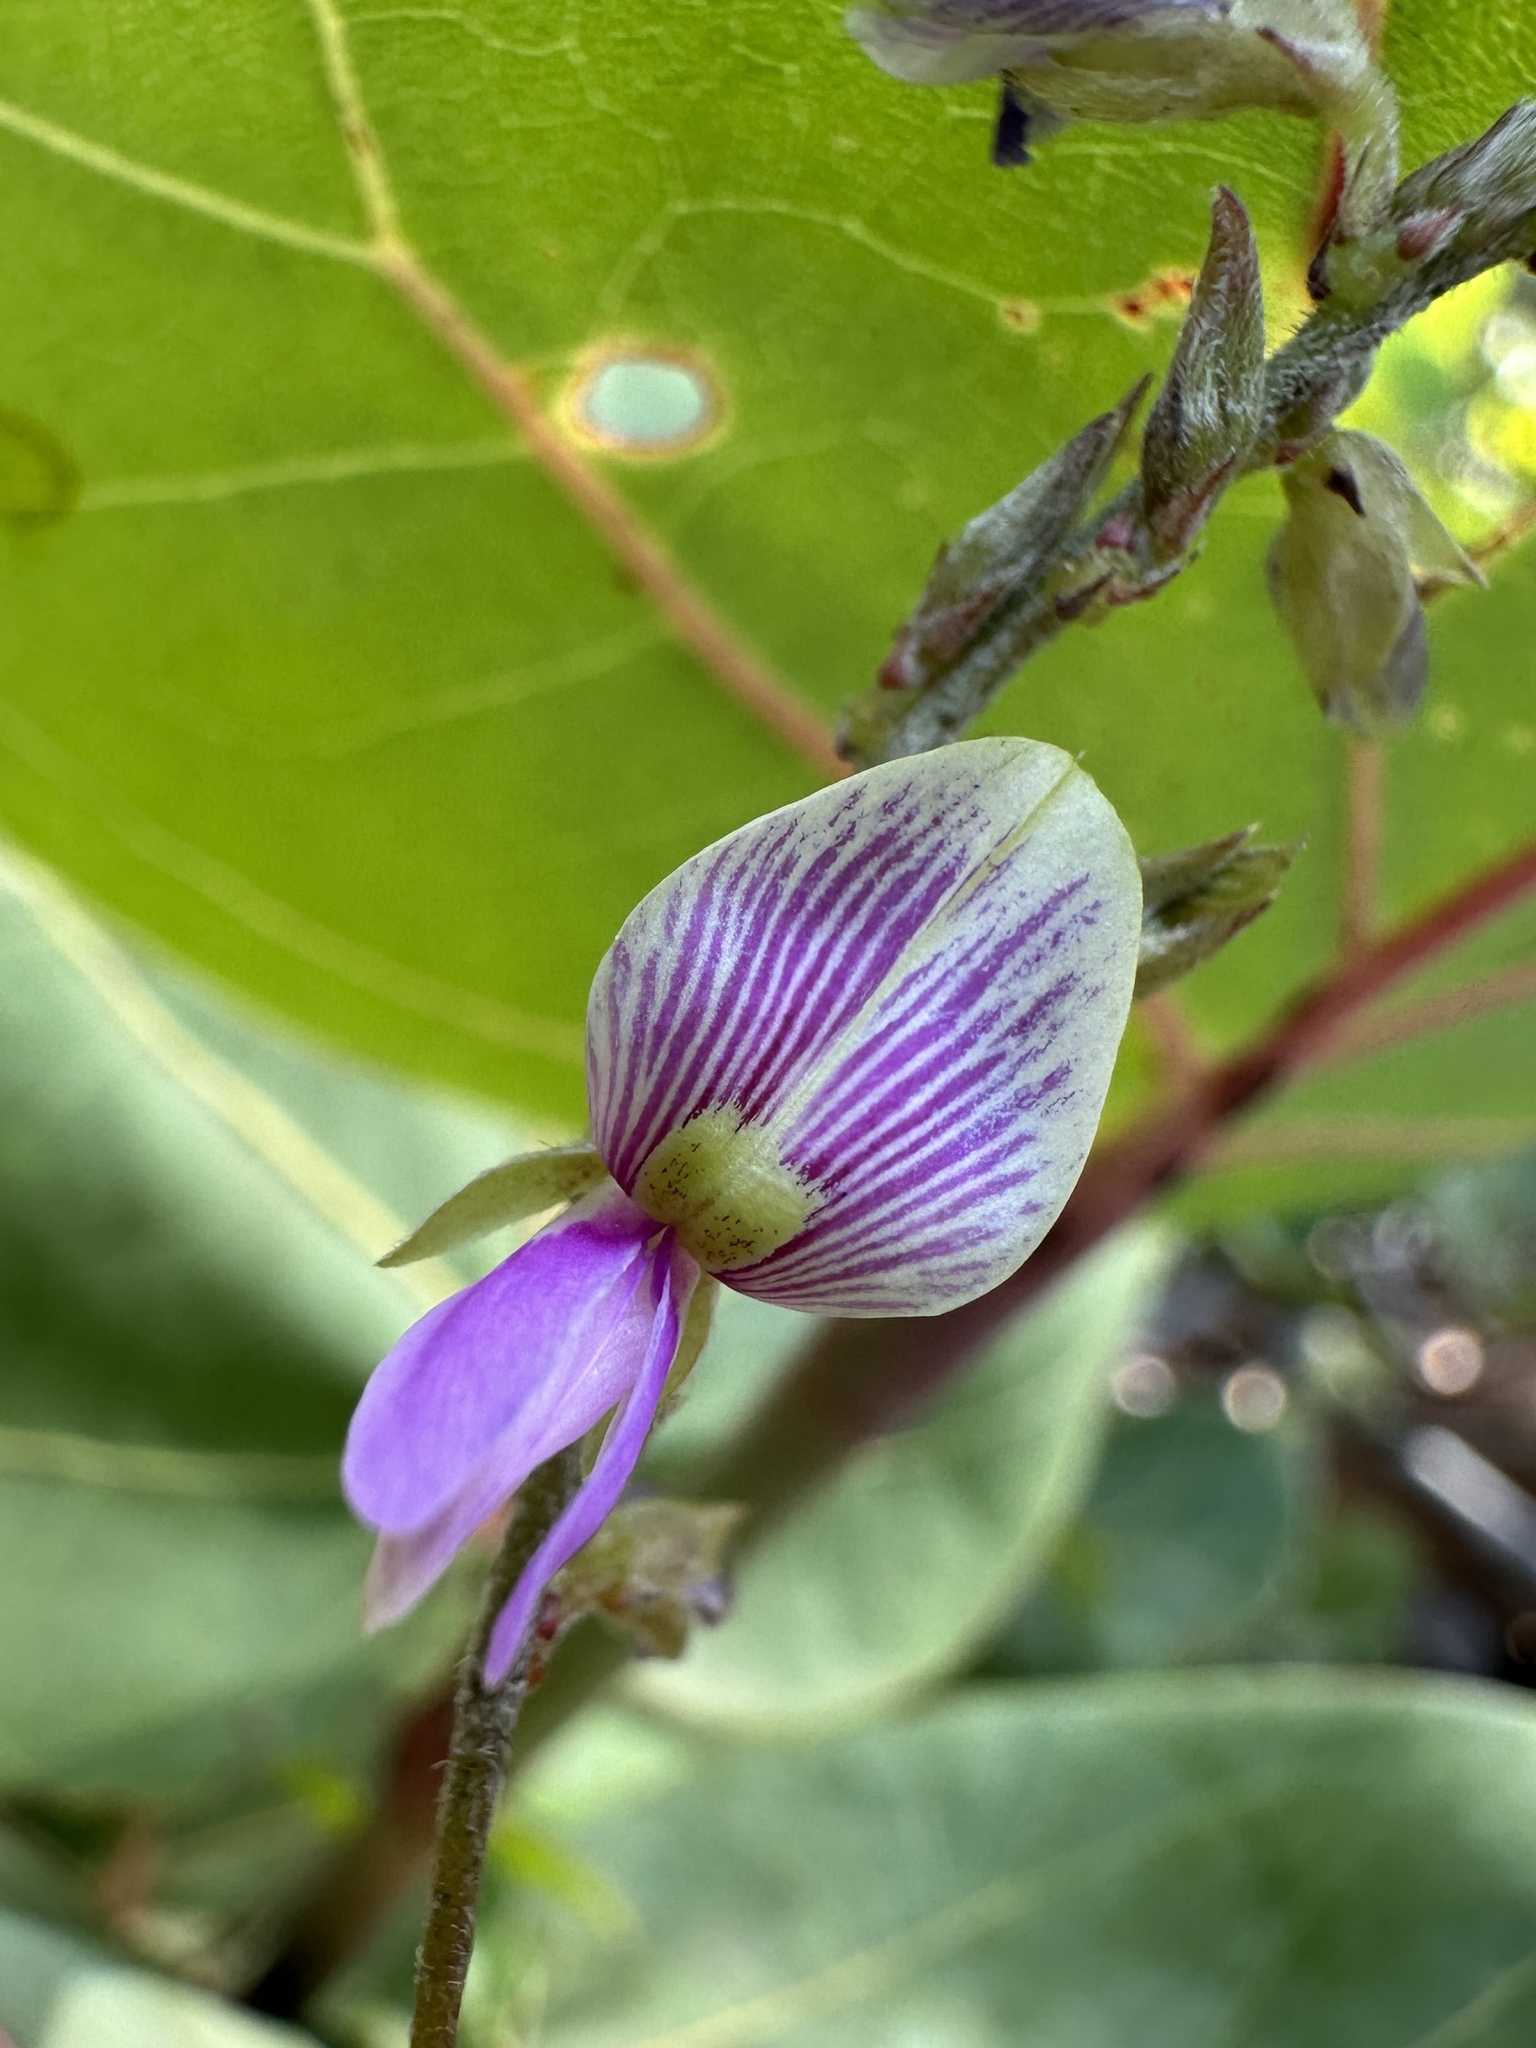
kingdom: Plantae
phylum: Tracheophyta
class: Magnoliopsida
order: Fabales
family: Fabaceae
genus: Galactia
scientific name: Galactia striata
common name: Florida hammock milkpea
